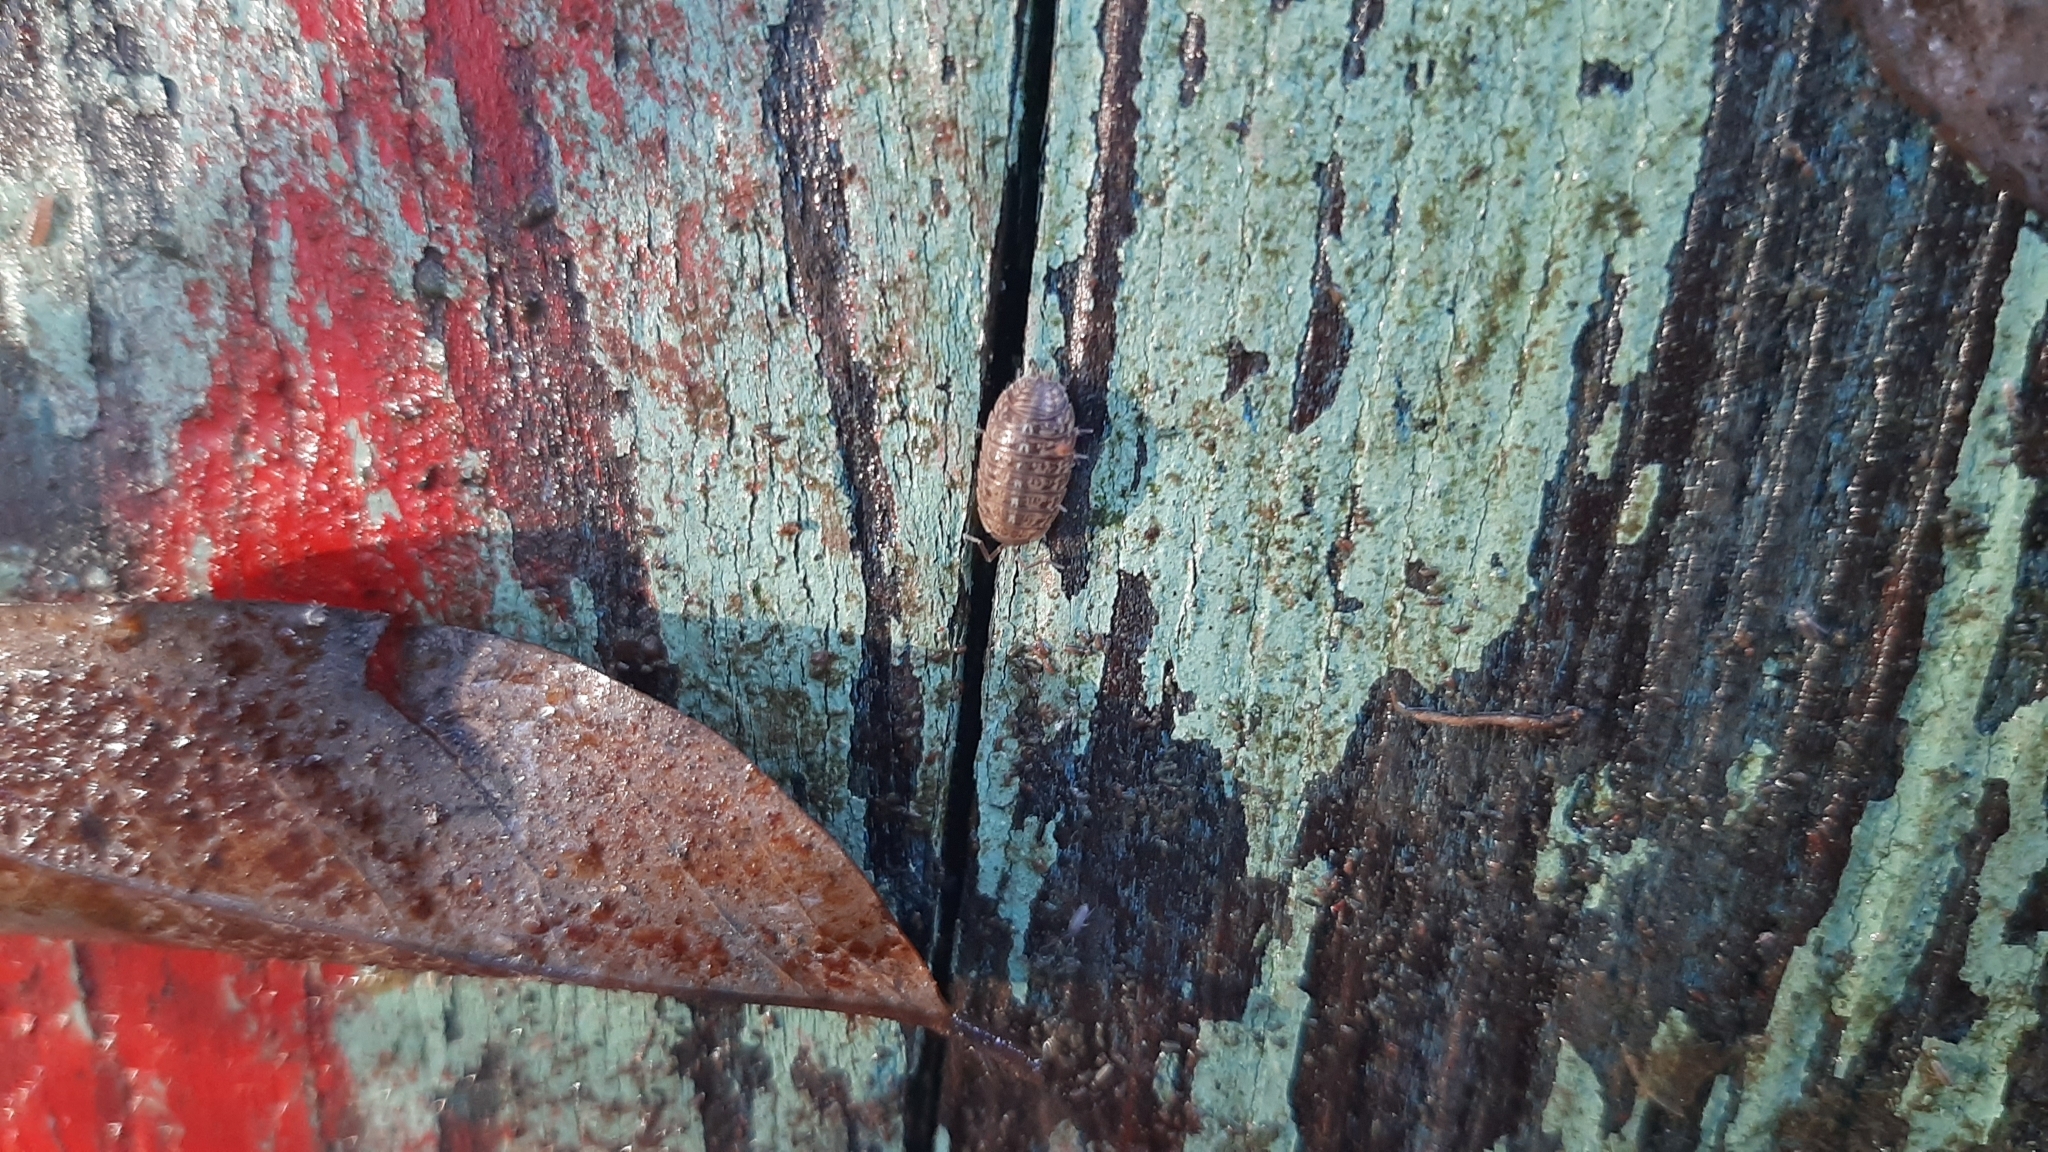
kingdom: Animalia
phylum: Arthropoda
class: Malacostraca
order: Isopoda
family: Trachelipodidae
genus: Trachelipus
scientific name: Trachelipus razzautii
